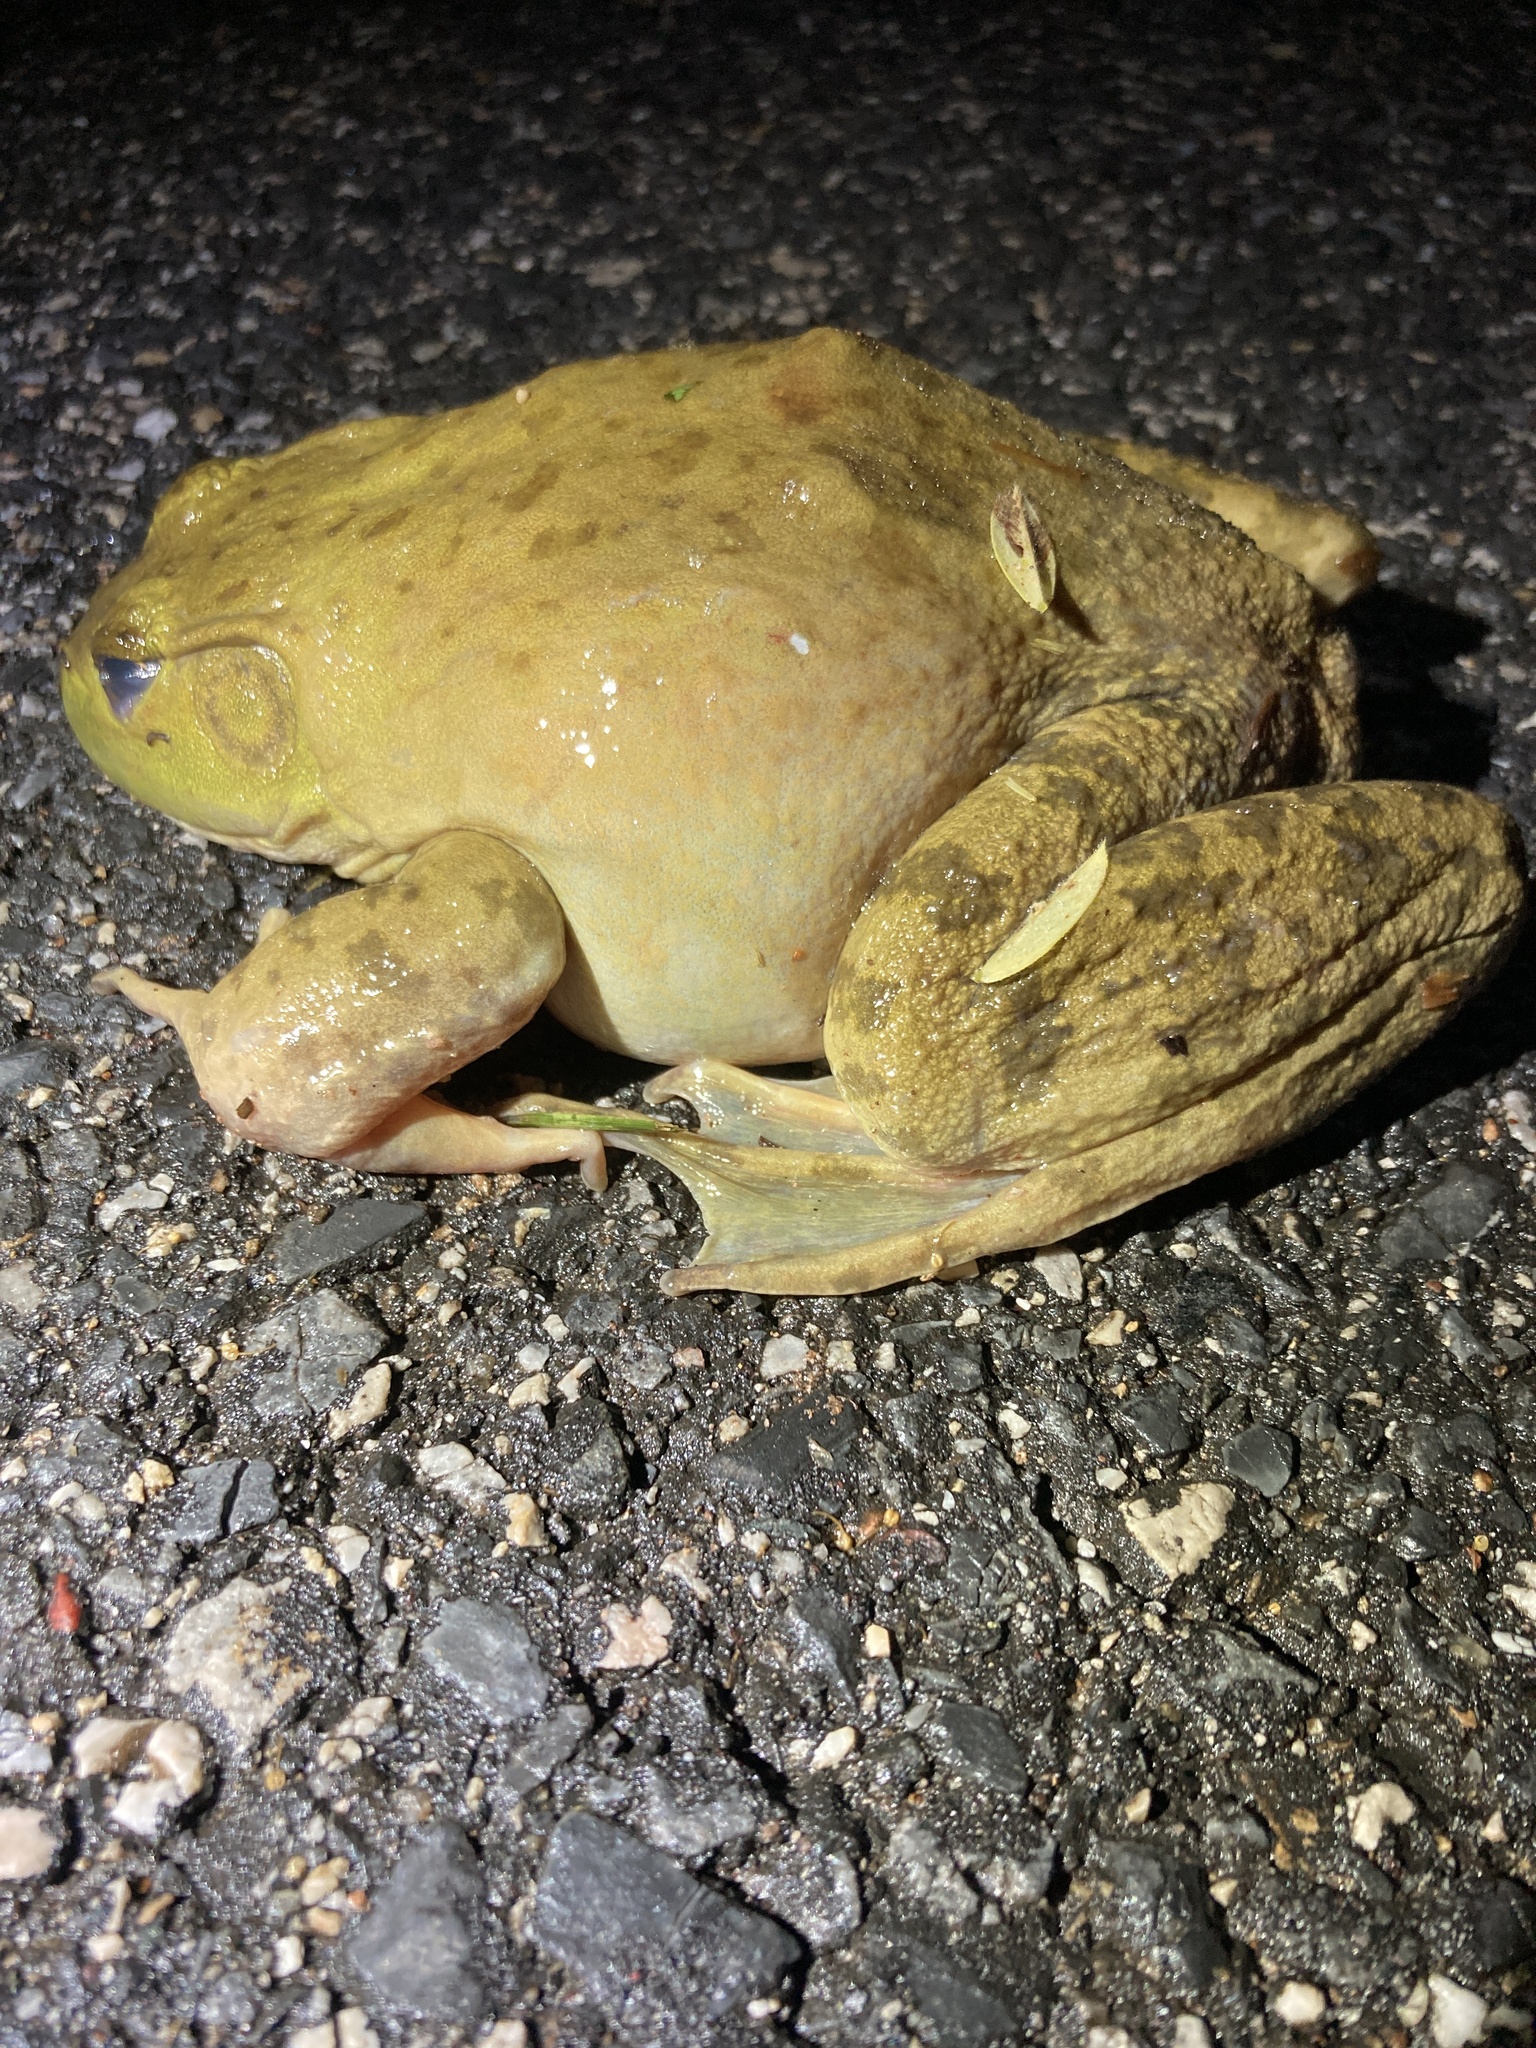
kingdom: Animalia
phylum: Chordata
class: Amphibia
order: Anura
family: Ranidae
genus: Lithobates
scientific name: Lithobates catesbeianus
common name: American bullfrog
